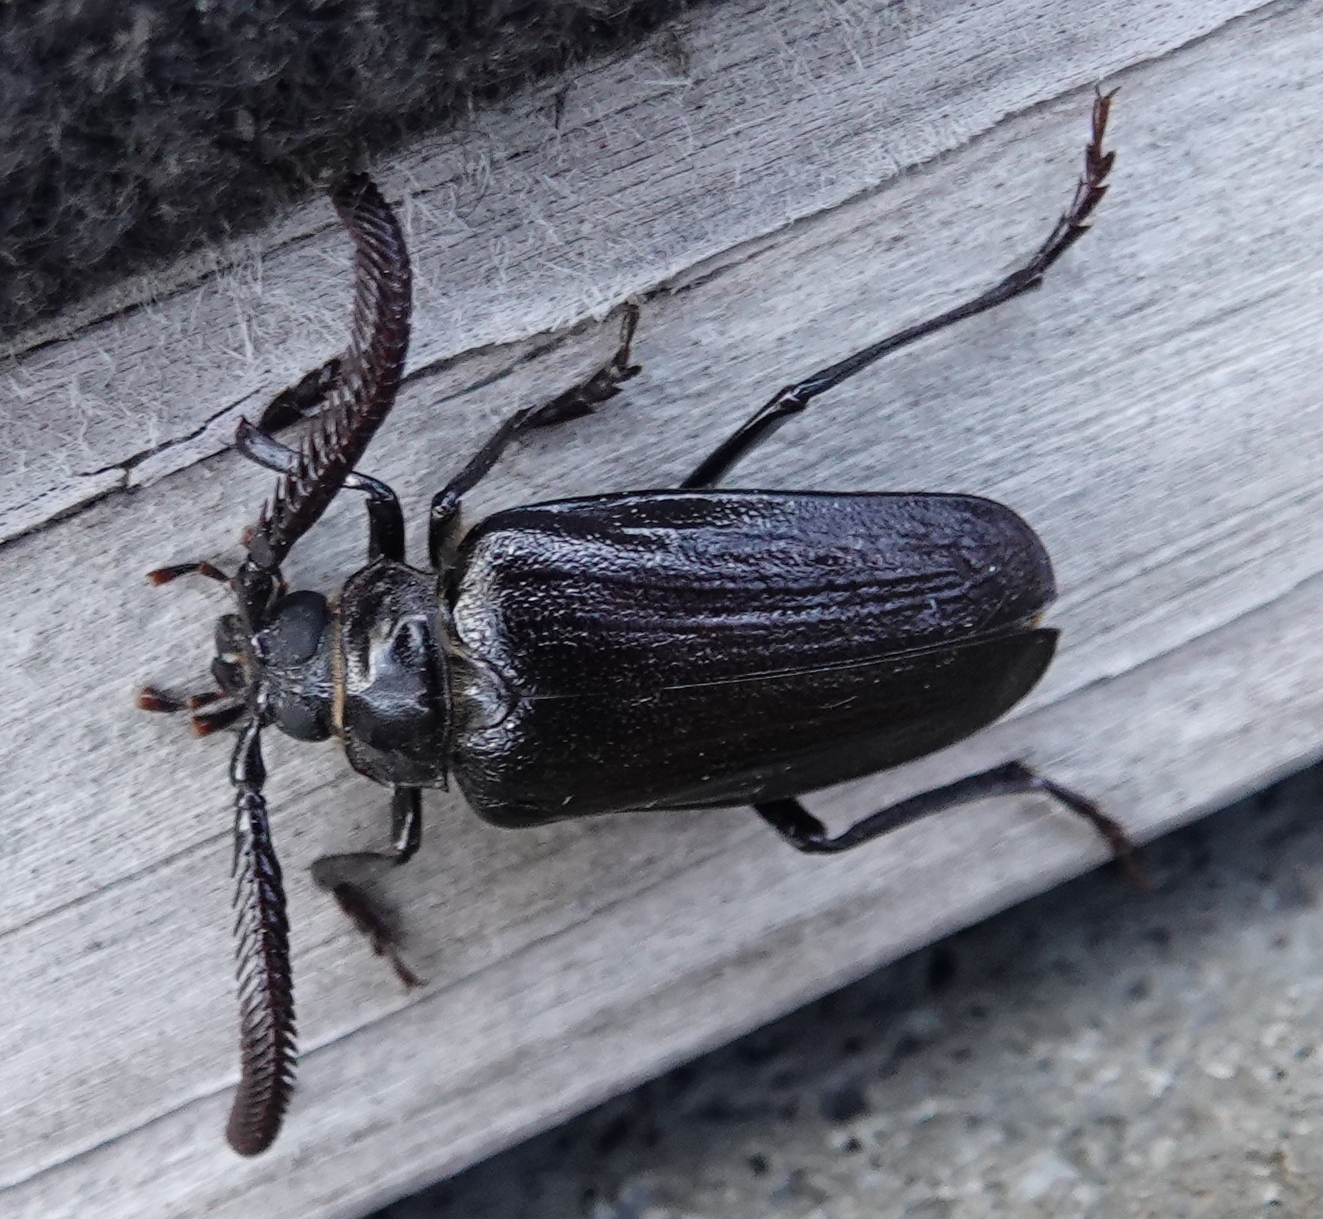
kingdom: Animalia
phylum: Arthropoda
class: Insecta
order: Coleoptera
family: Cerambycidae
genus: Prionus
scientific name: Prionus fissicornis
